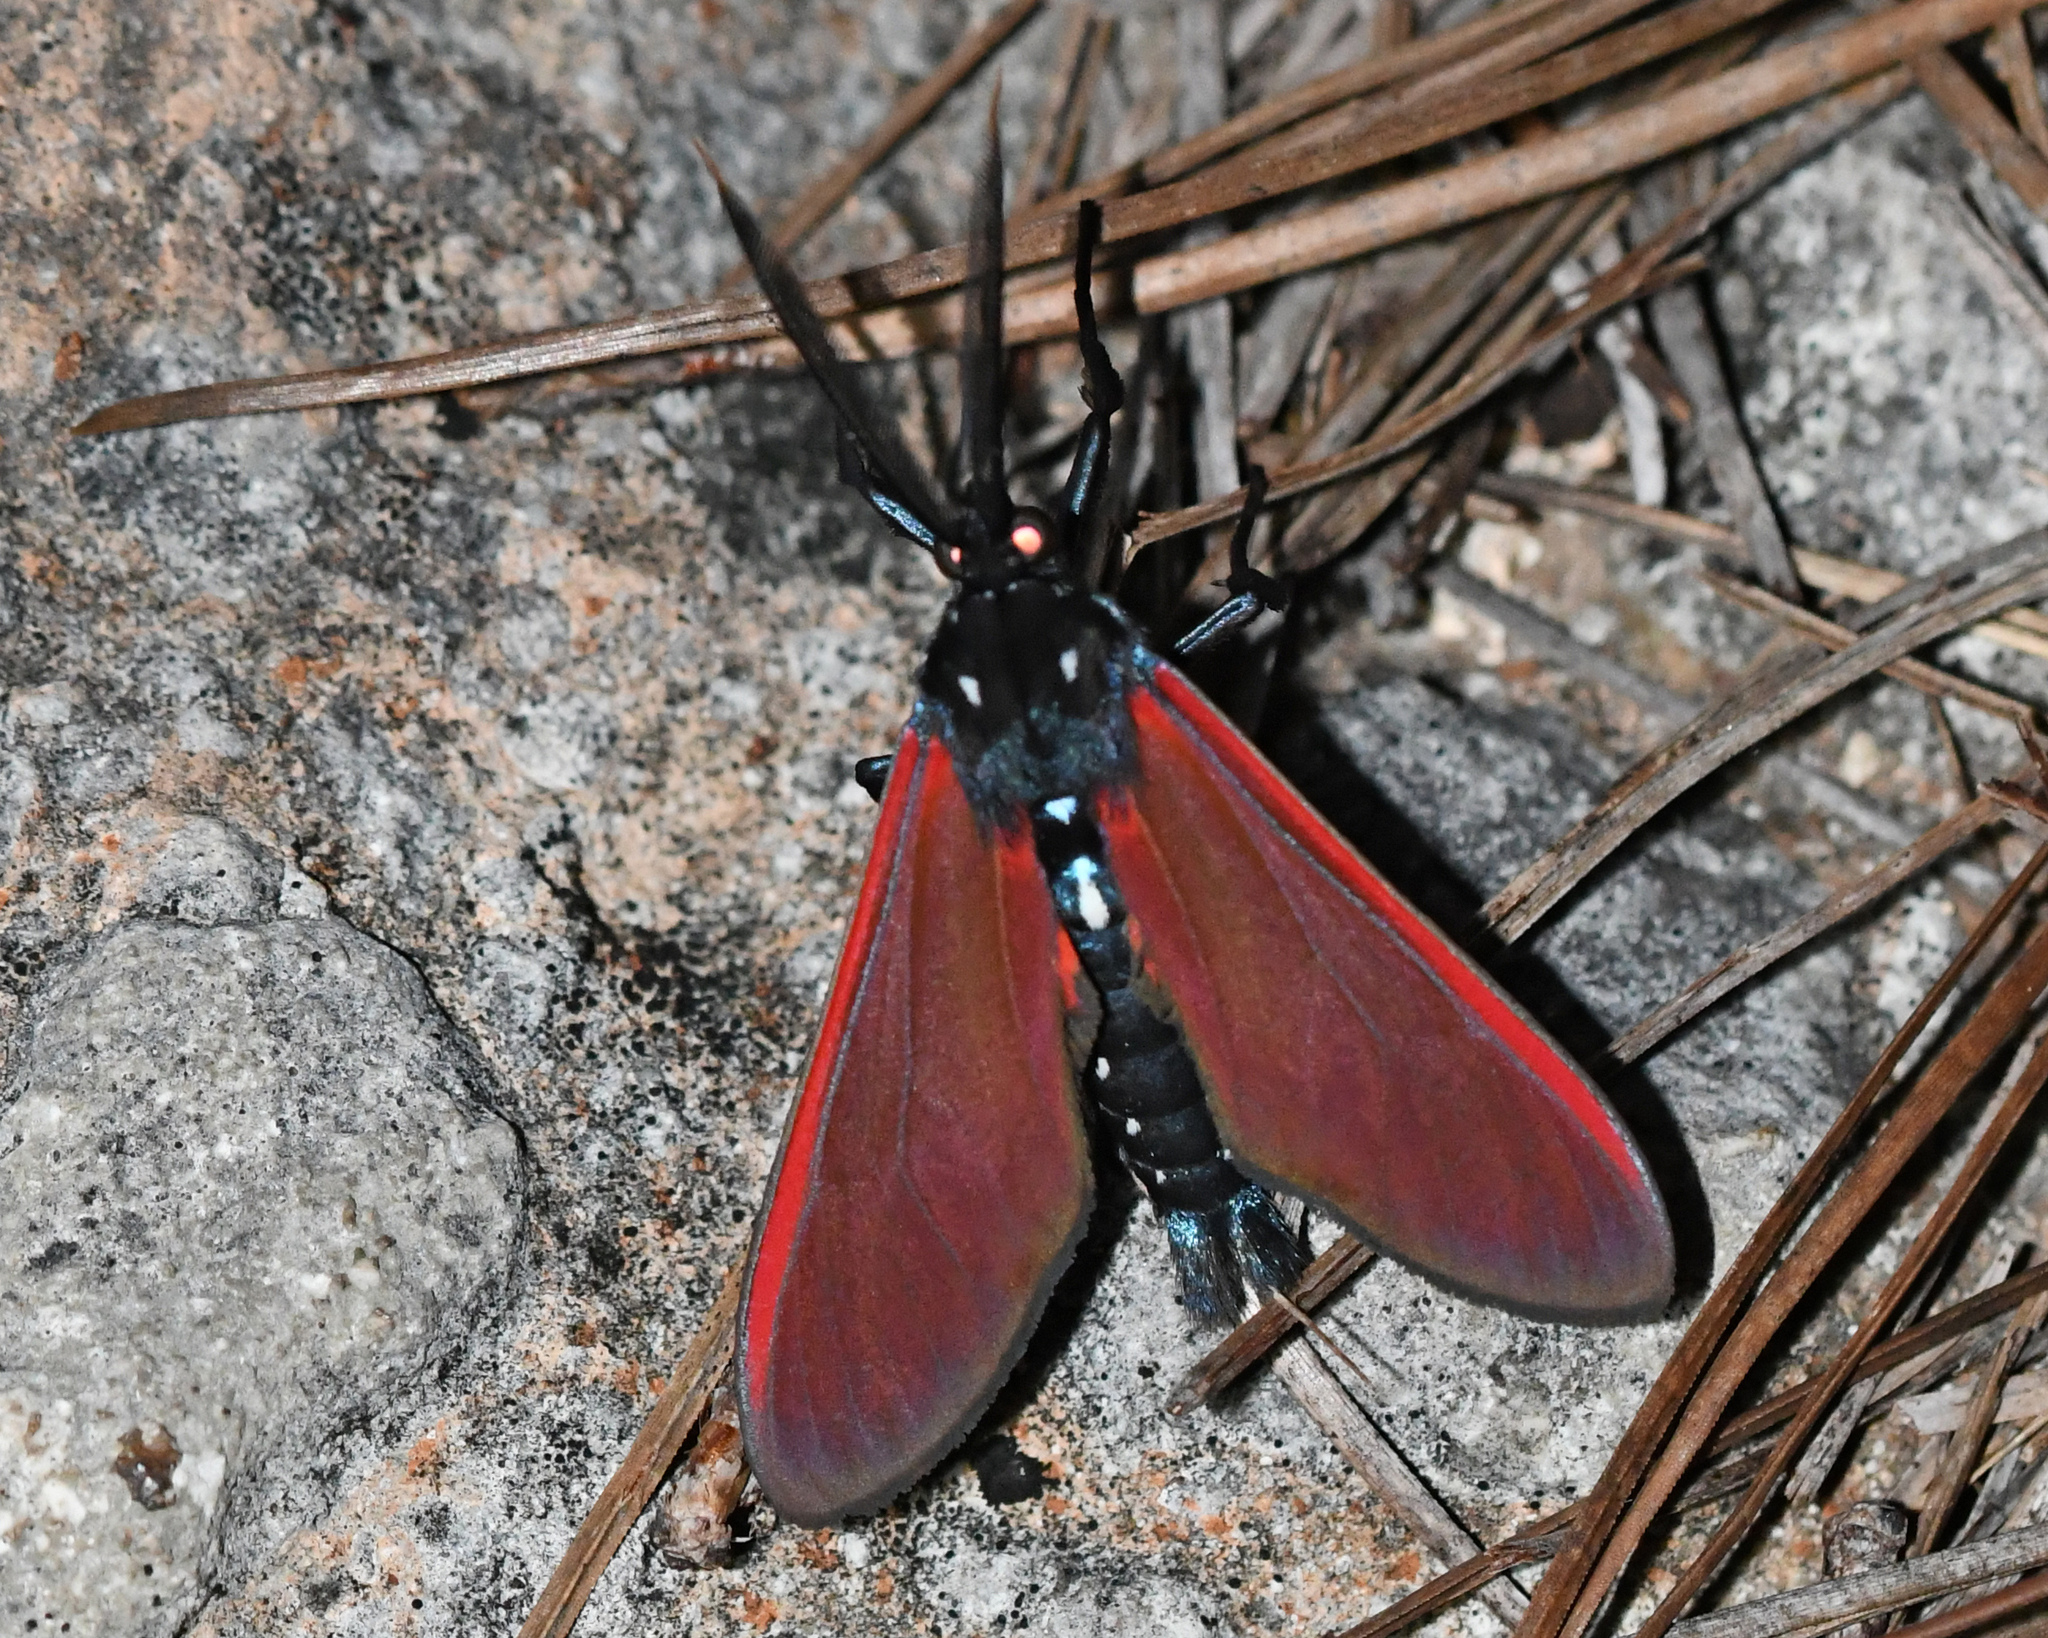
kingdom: Animalia
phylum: Arthropoda
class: Insecta
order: Lepidoptera
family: Erebidae
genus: Empyreuma
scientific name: Empyreuma pugione
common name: Spotted oleander caterpillar moth
